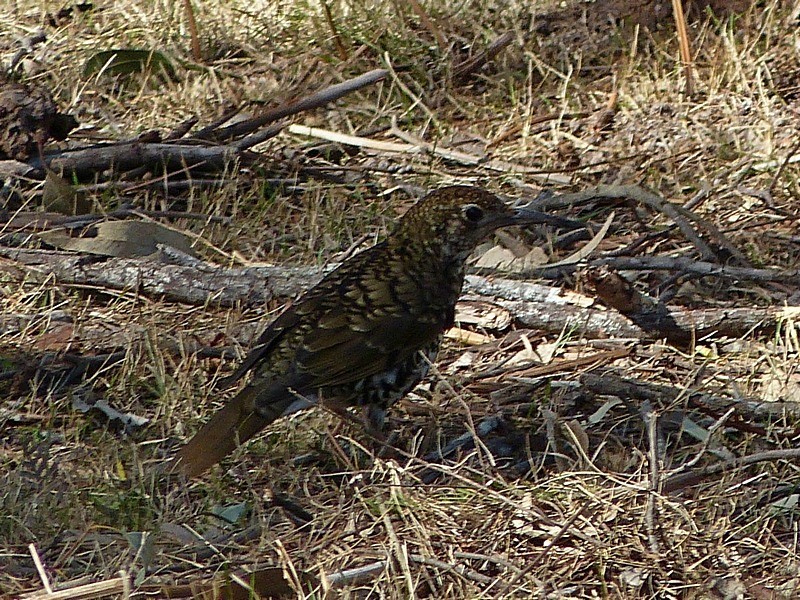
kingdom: Animalia
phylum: Chordata
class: Aves
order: Passeriformes
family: Turdidae
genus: Zoothera
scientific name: Zoothera lunulata
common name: Bassian thrush
